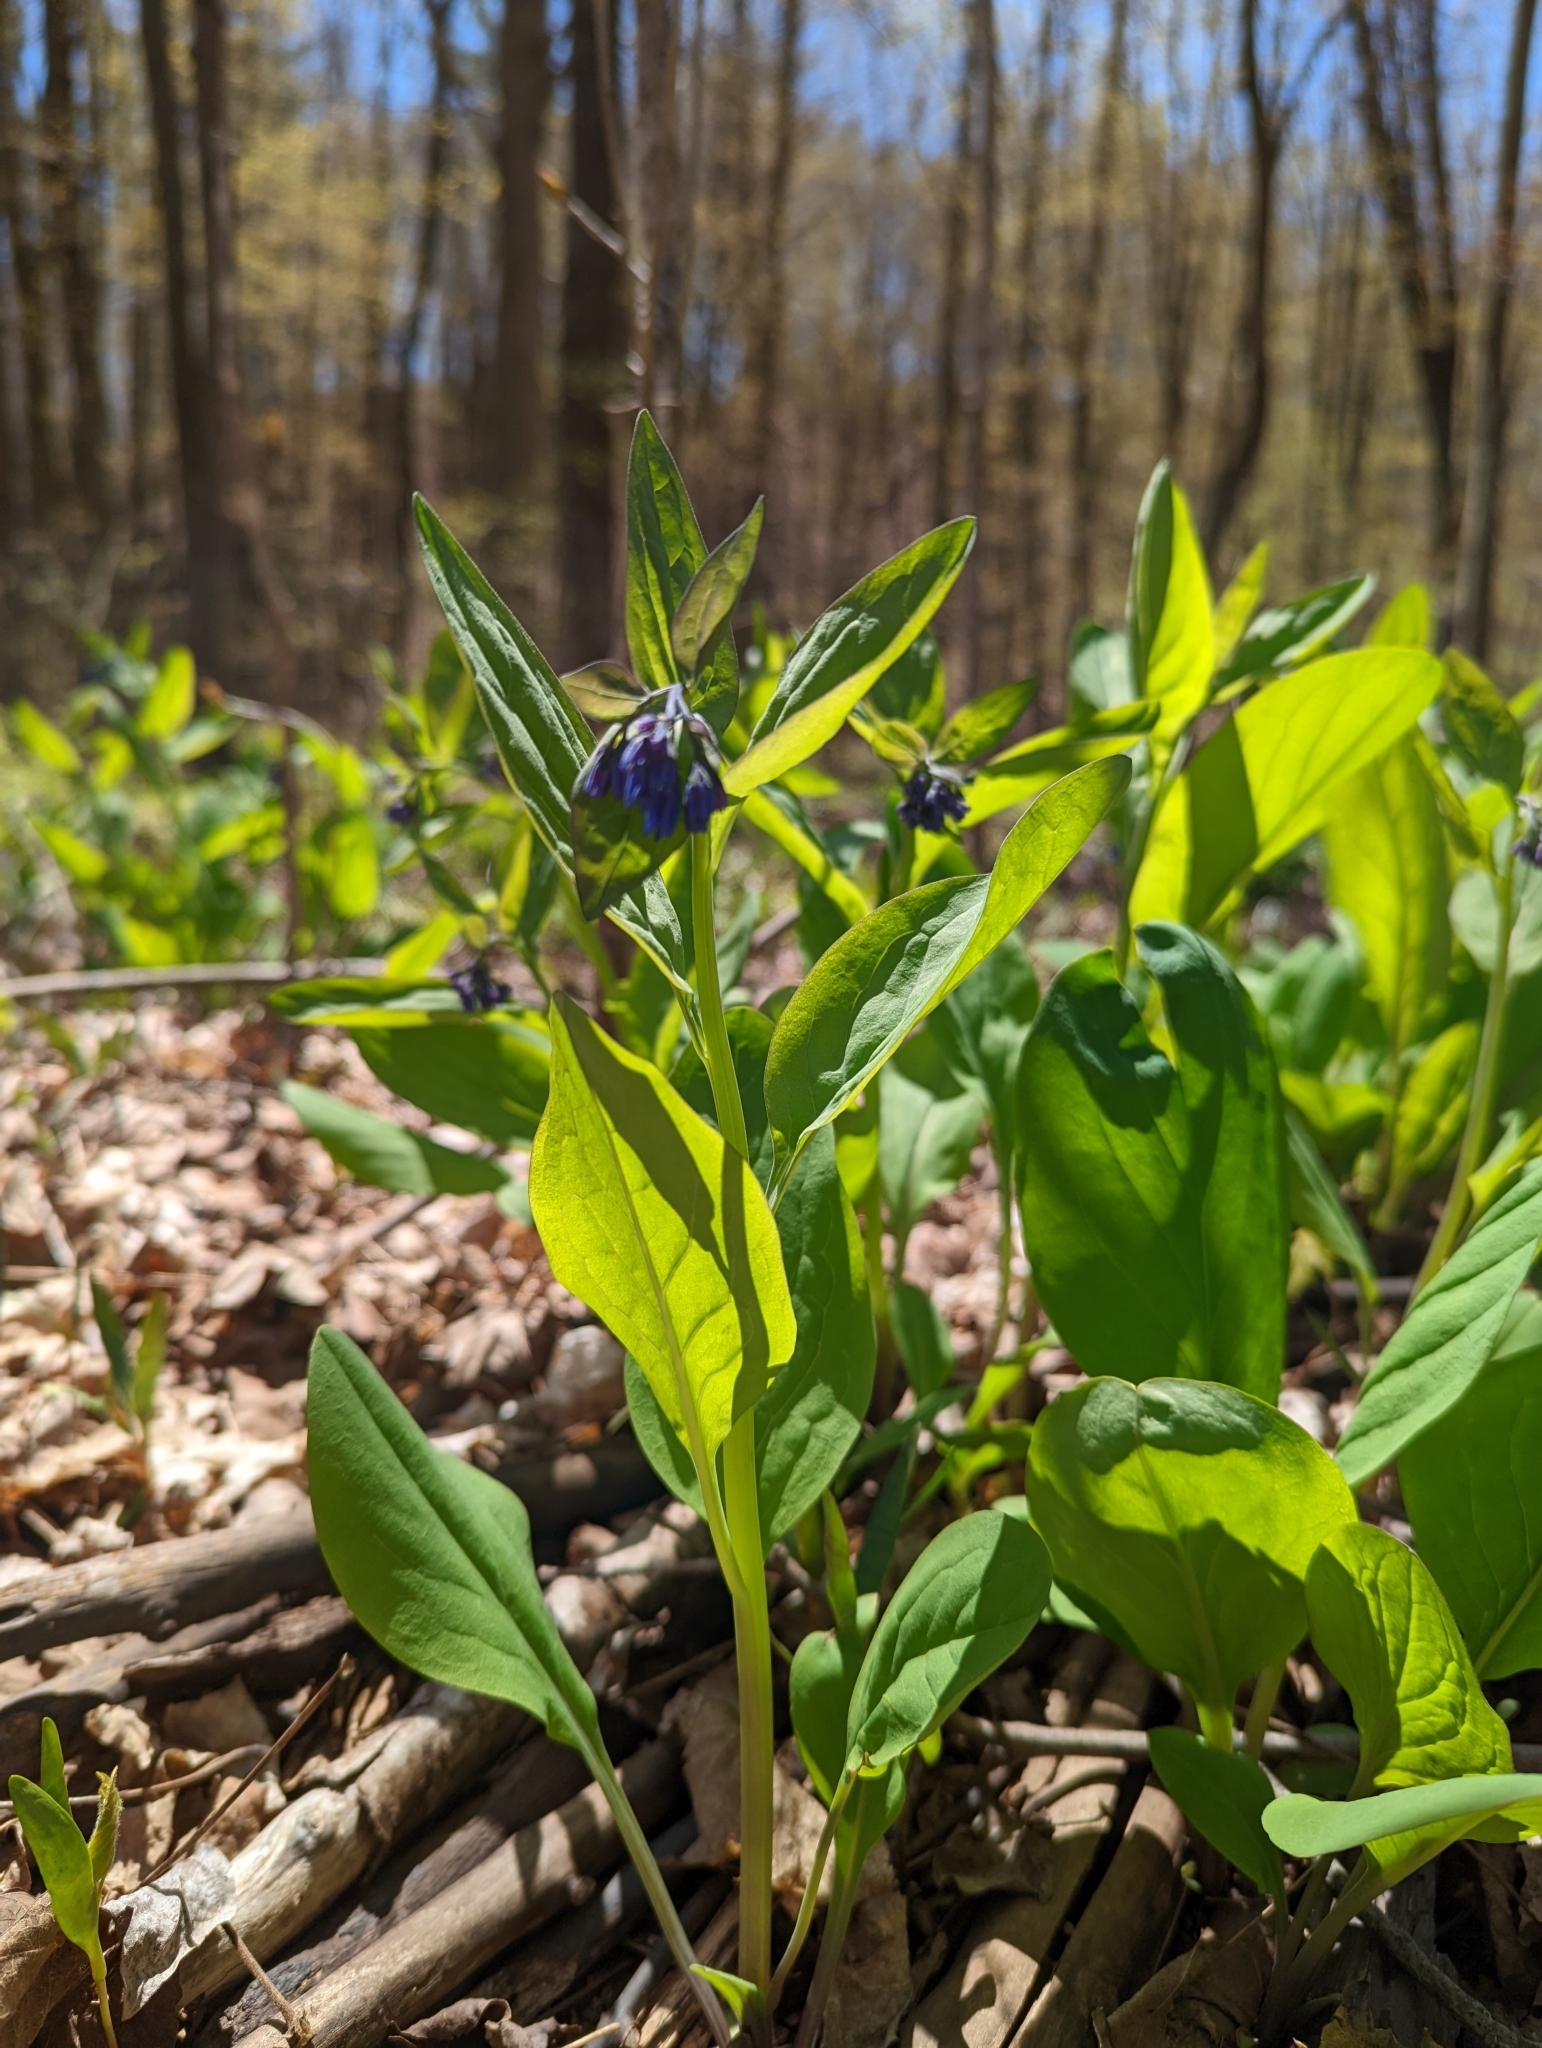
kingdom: Plantae
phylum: Tracheophyta
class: Magnoliopsida
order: Boraginales
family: Boraginaceae
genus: Mertensia
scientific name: Mertensia virginica
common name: Virginia bluebells
